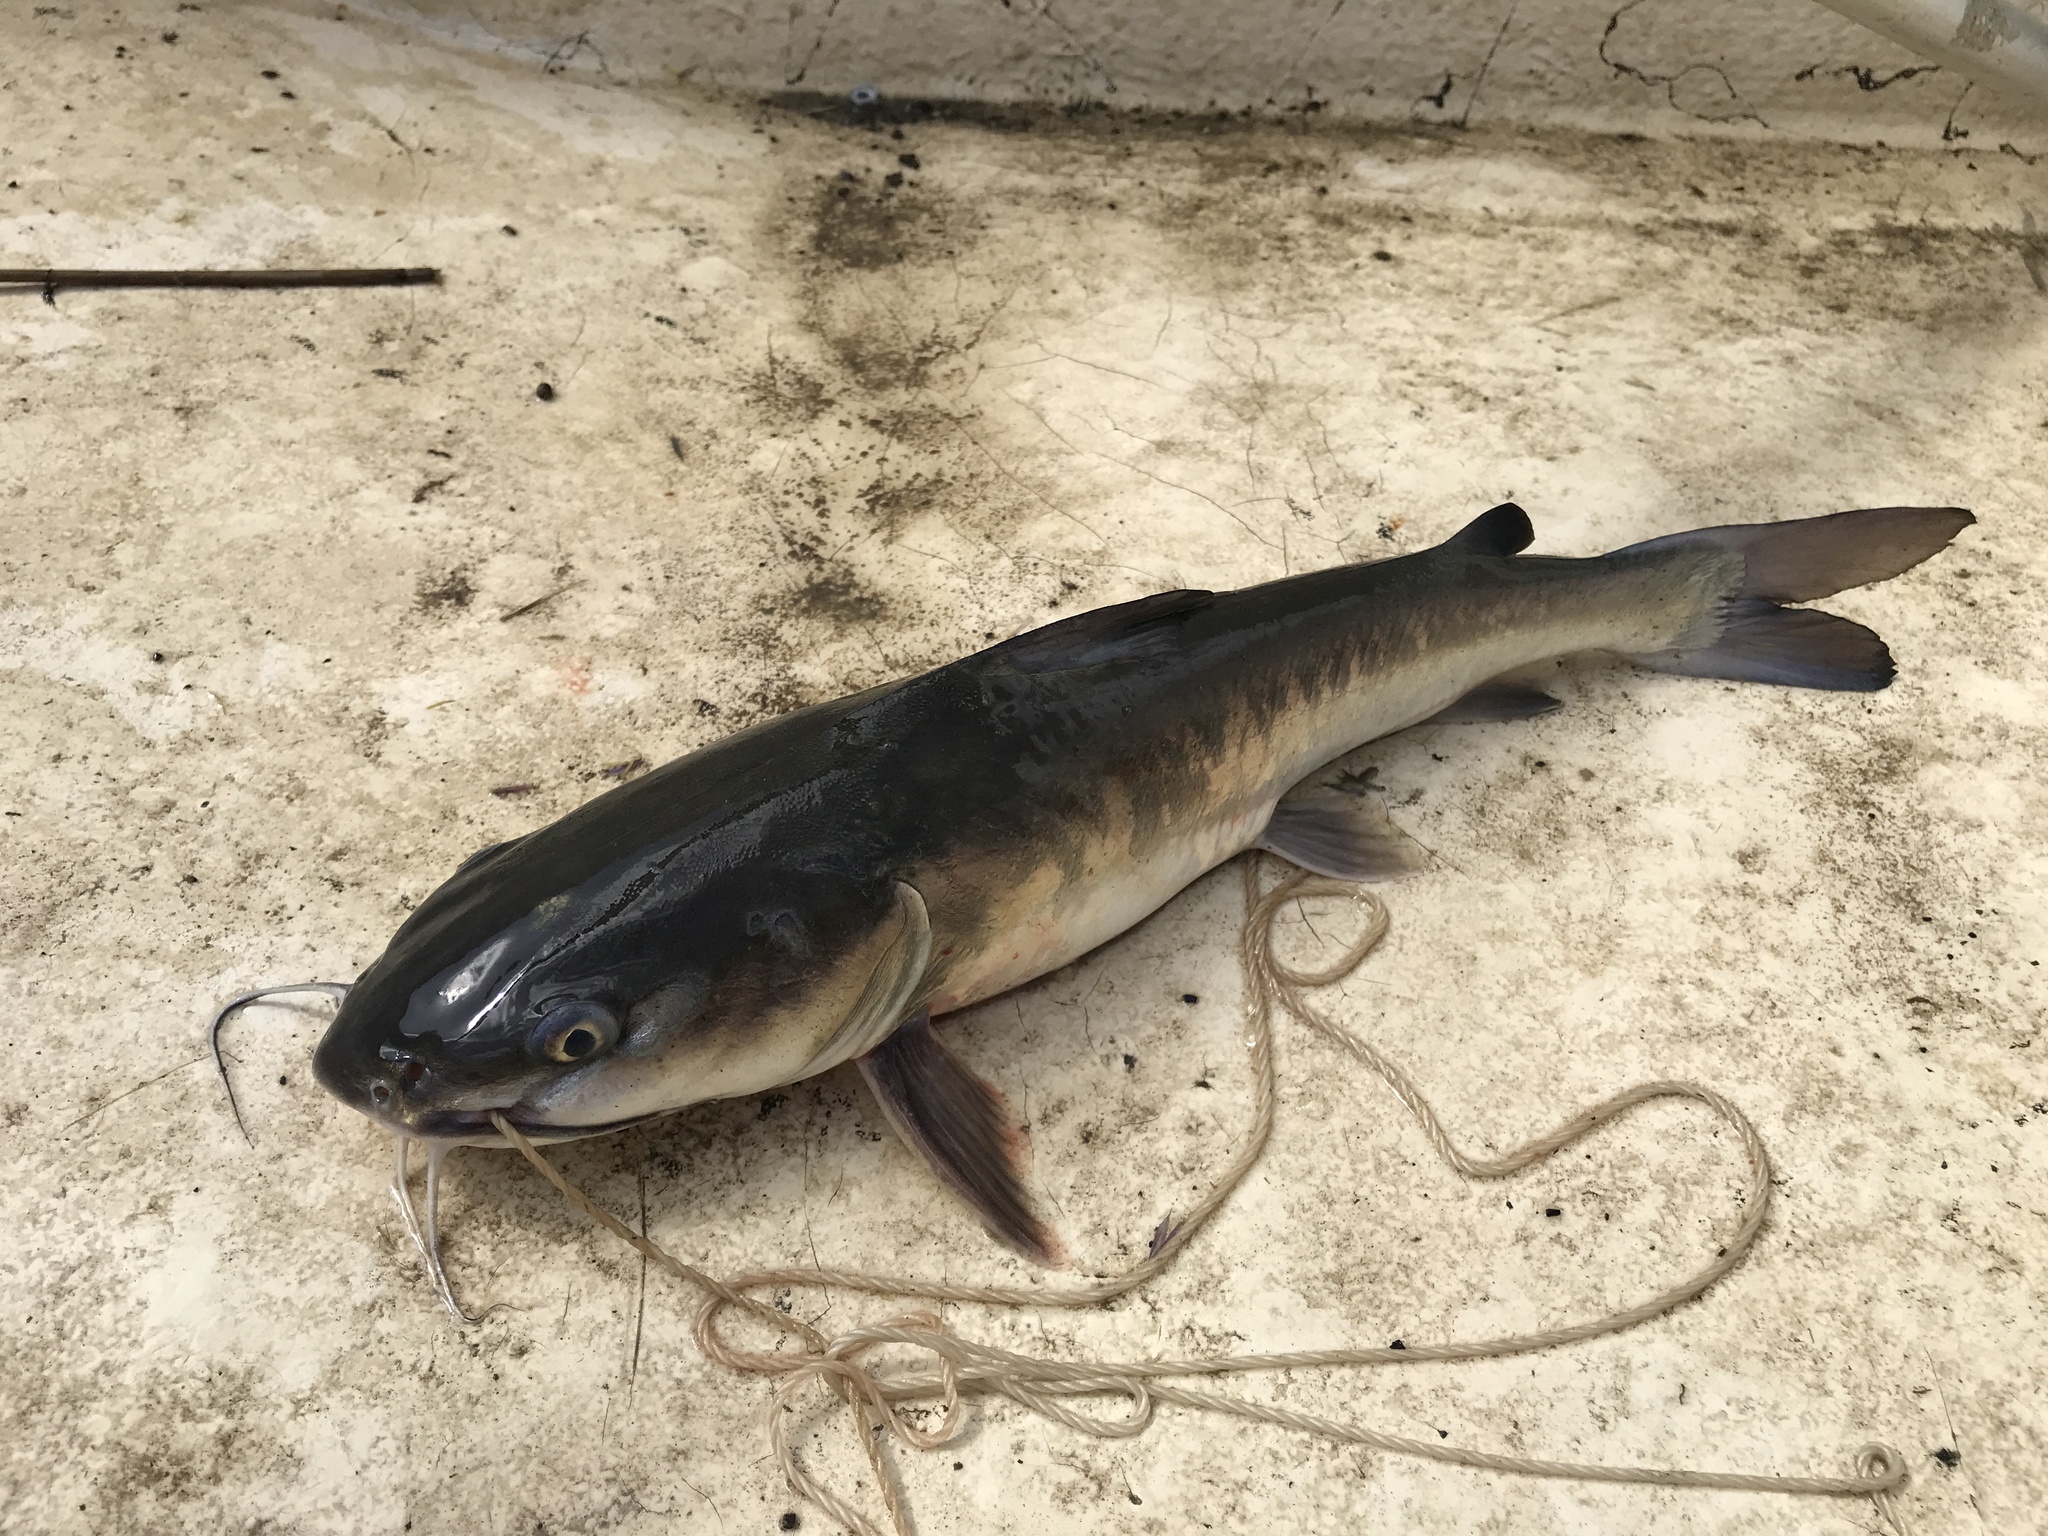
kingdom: Animalia
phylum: Chordata
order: Siluriformes
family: Ariidae
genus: Ariopsis
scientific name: Ariopsis felis
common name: Hardhead catfish
